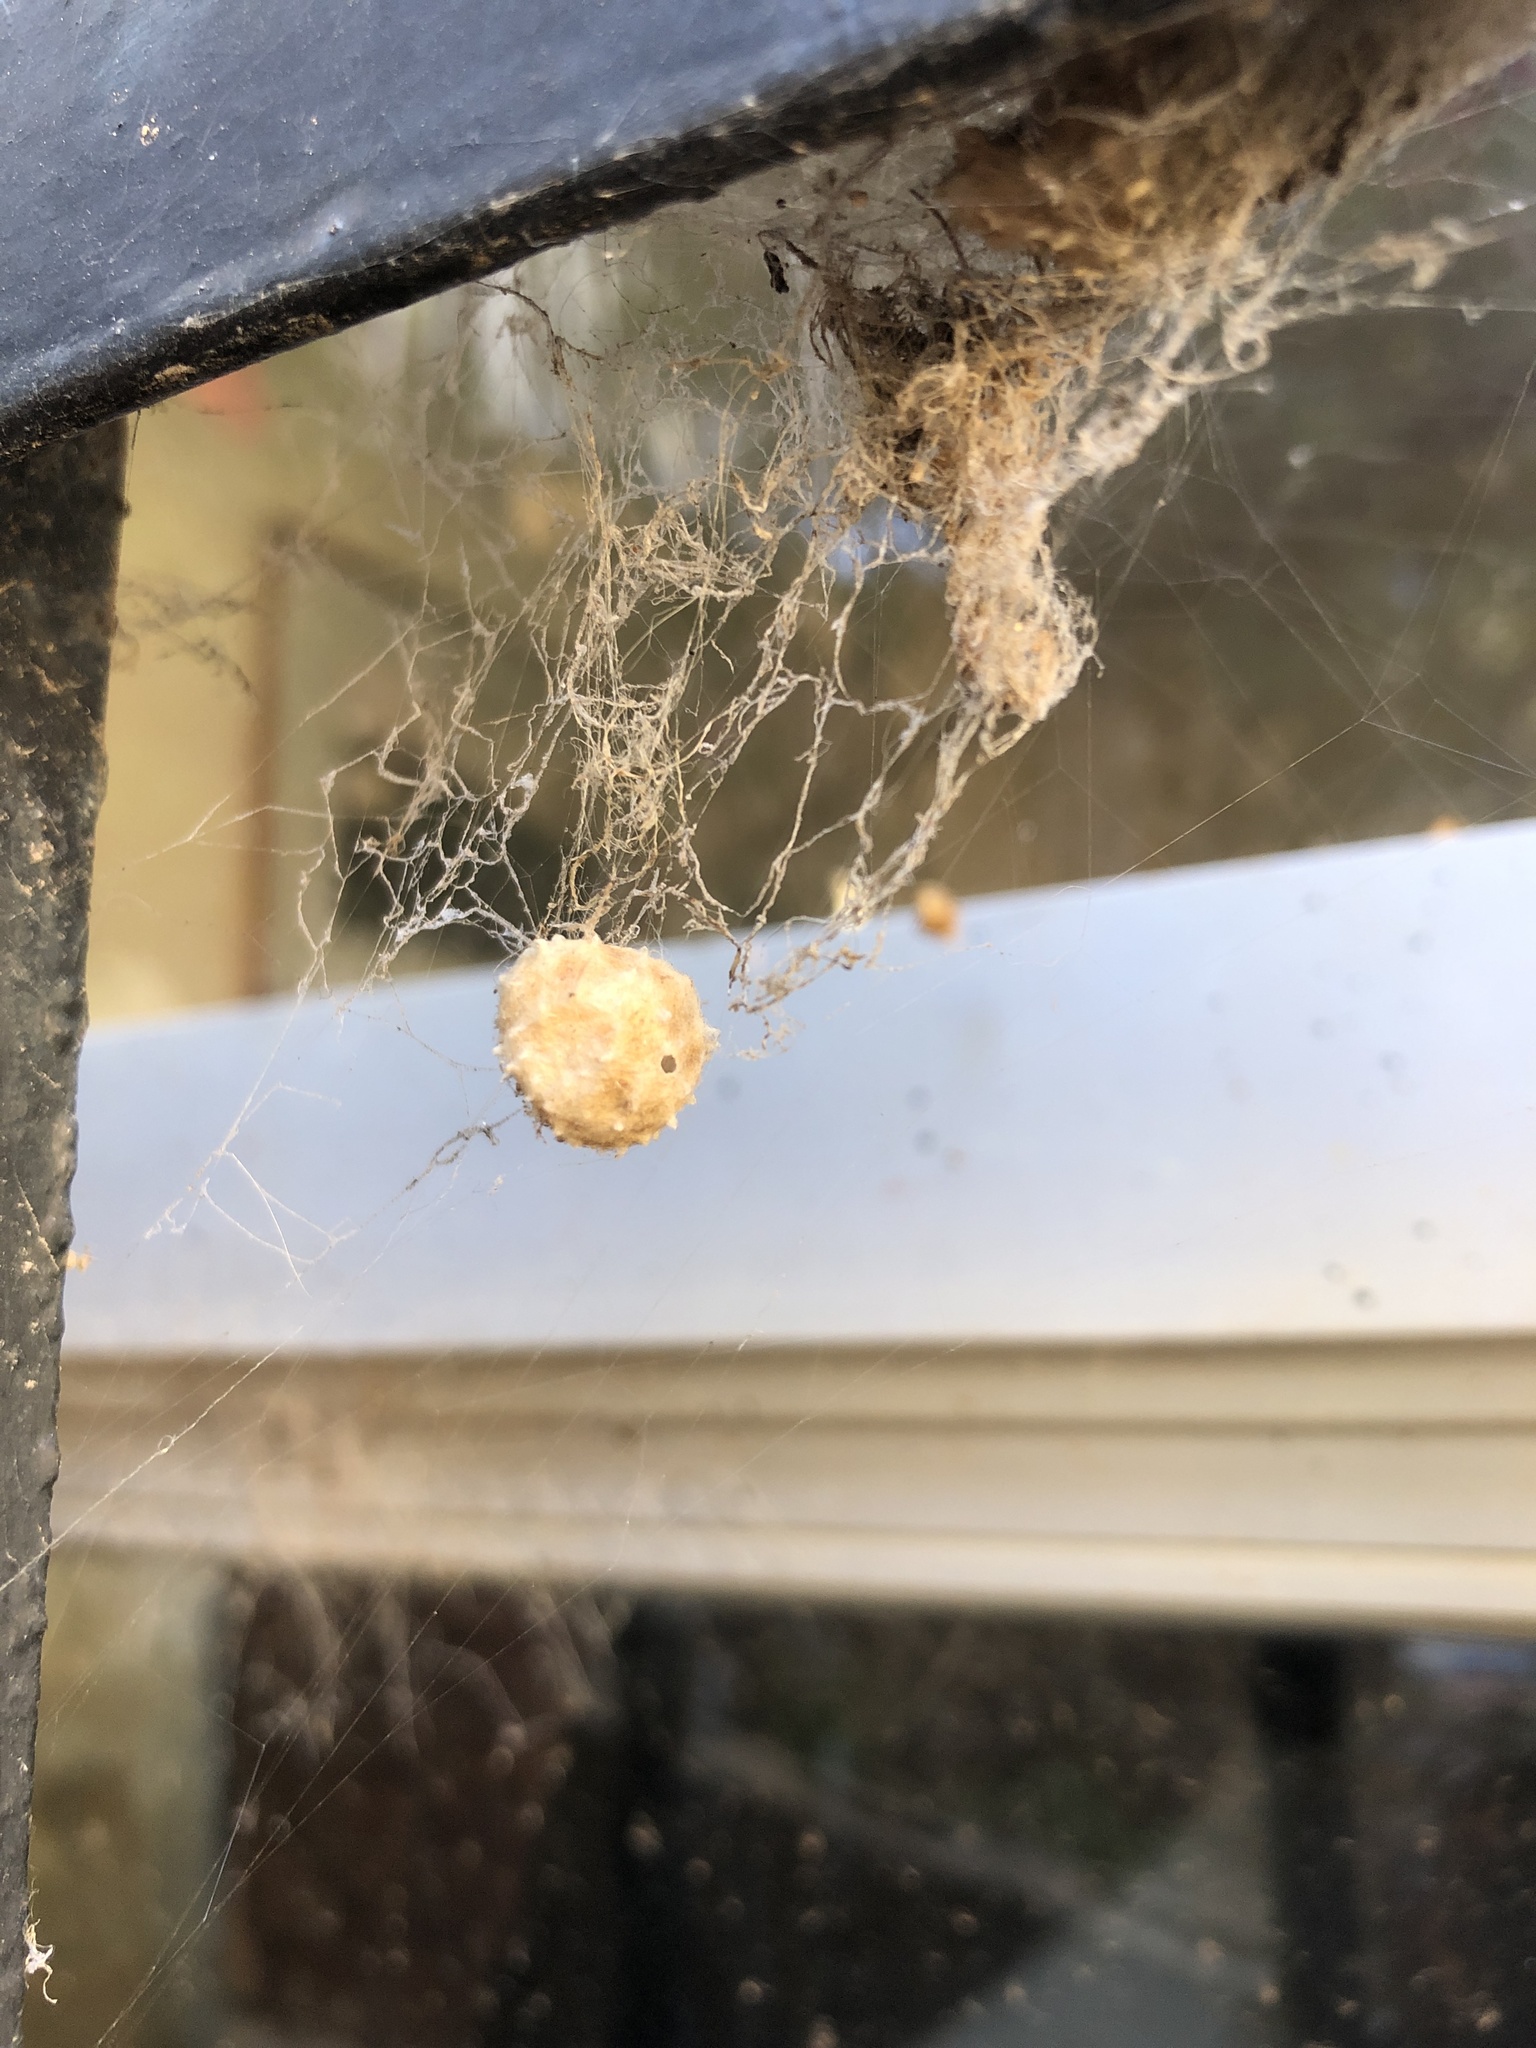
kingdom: Animalia
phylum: Arthropoda
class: Arachnida
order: Araneae
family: Theridiidae
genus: Latrodectus
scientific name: Latrodectus geometricus
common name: Brown widow spider
